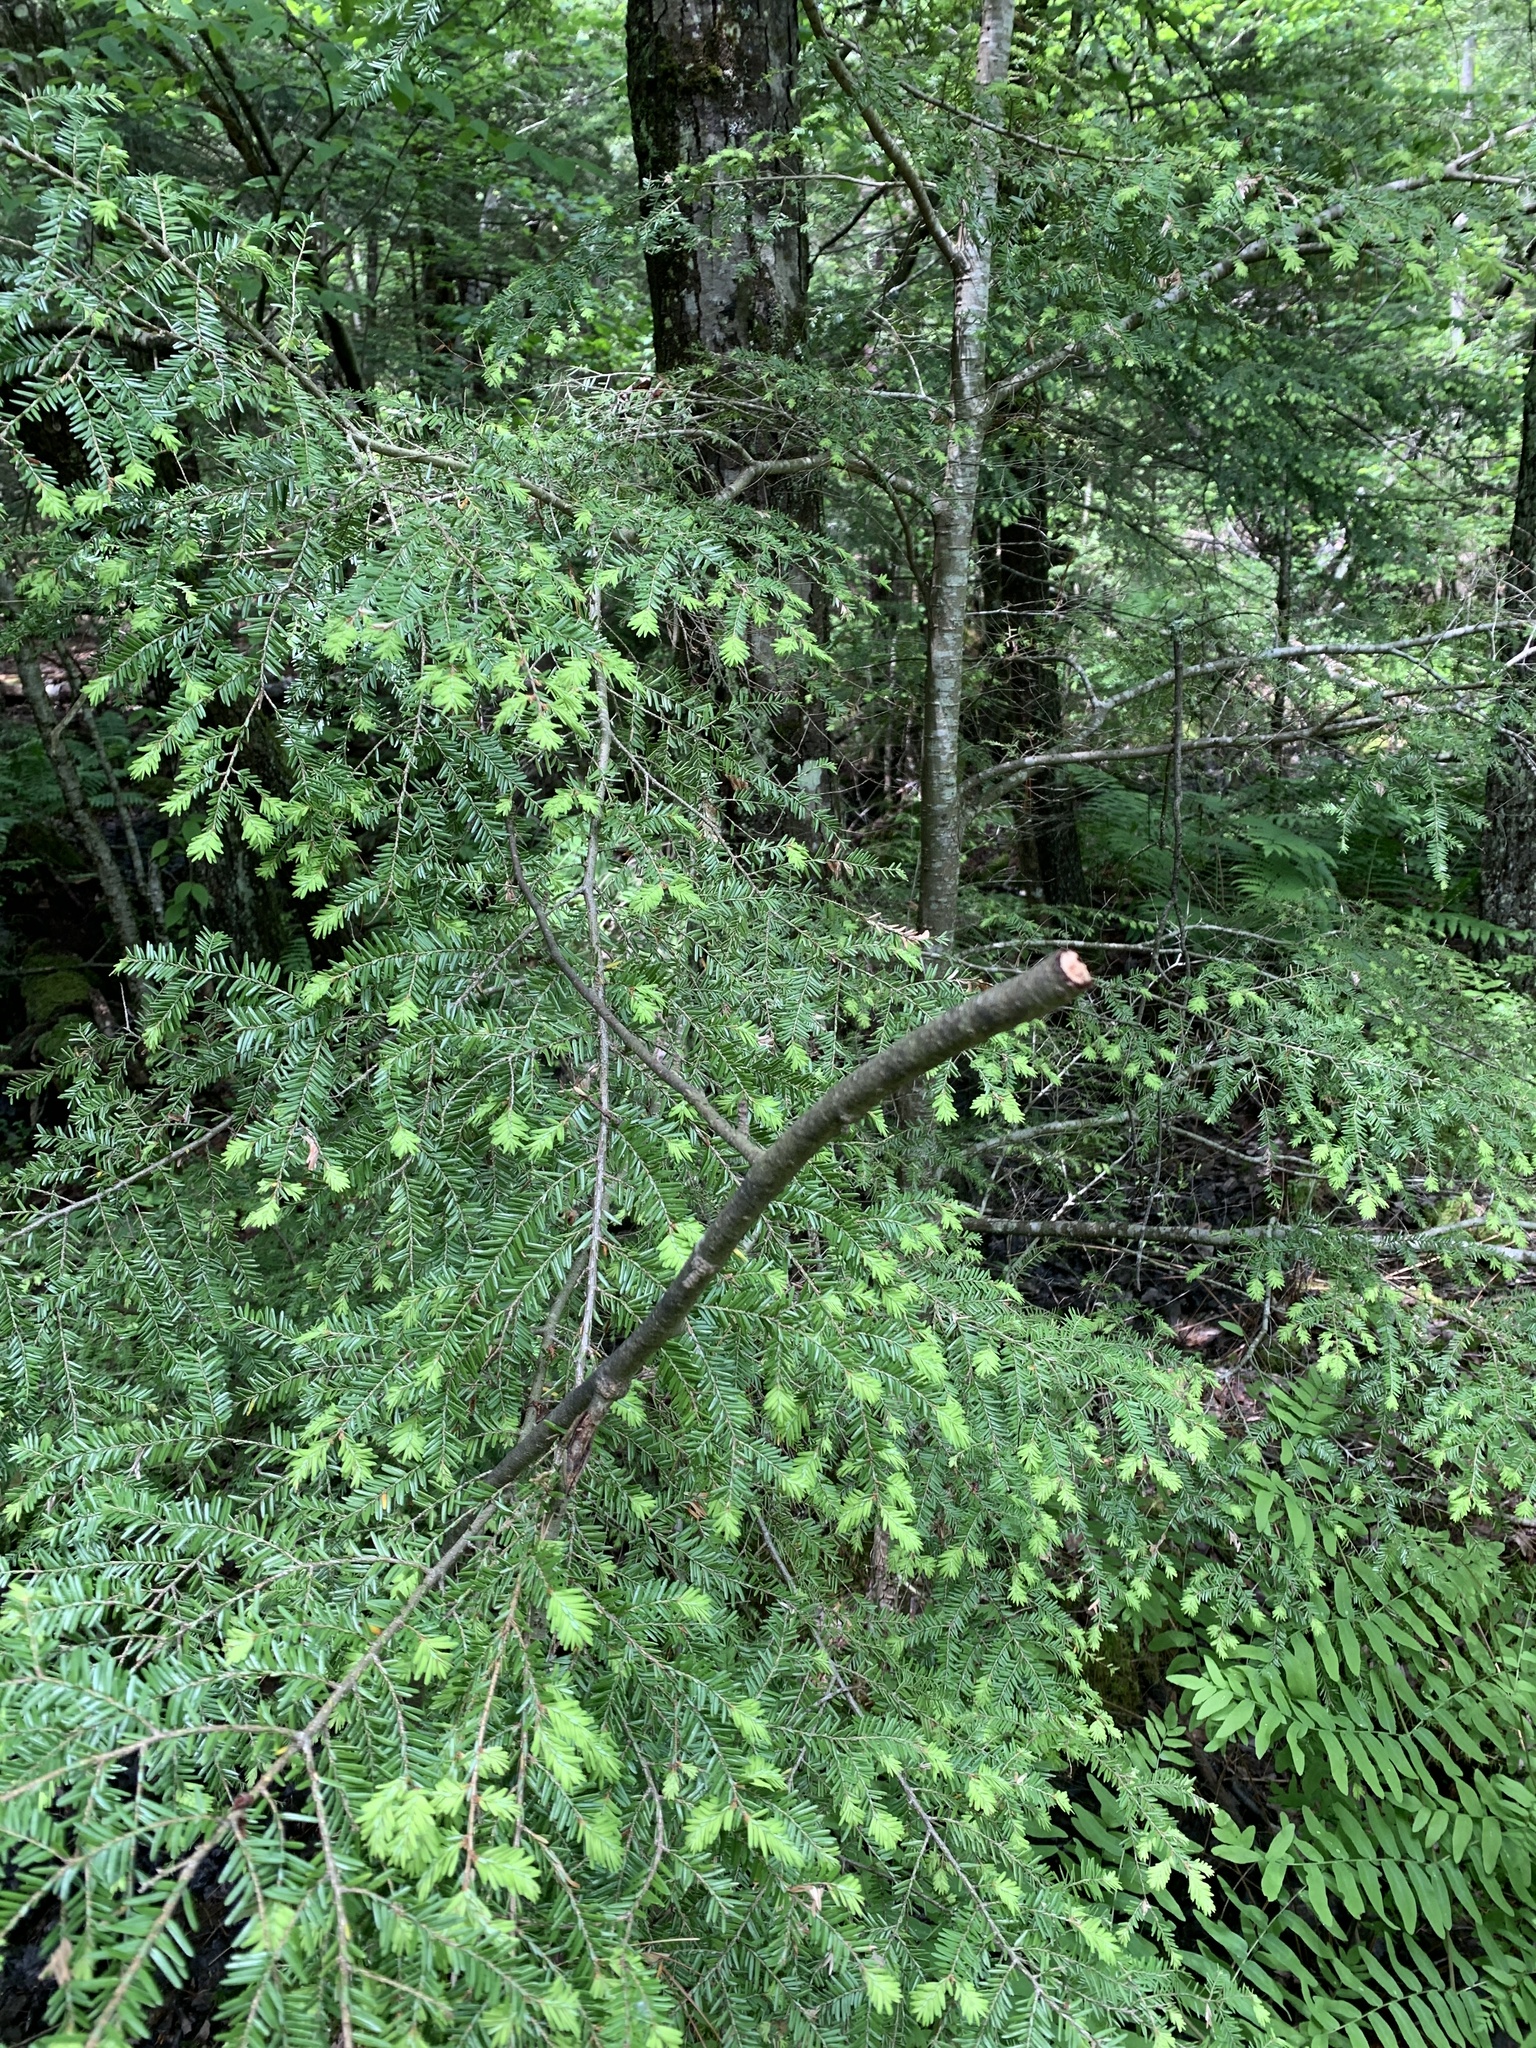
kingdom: Plantae
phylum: Tracheophyta
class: Pinopsida
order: Pinales
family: Pinaceae
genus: Tsuga
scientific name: Tsuga canadensis
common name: Eastern hemlock
